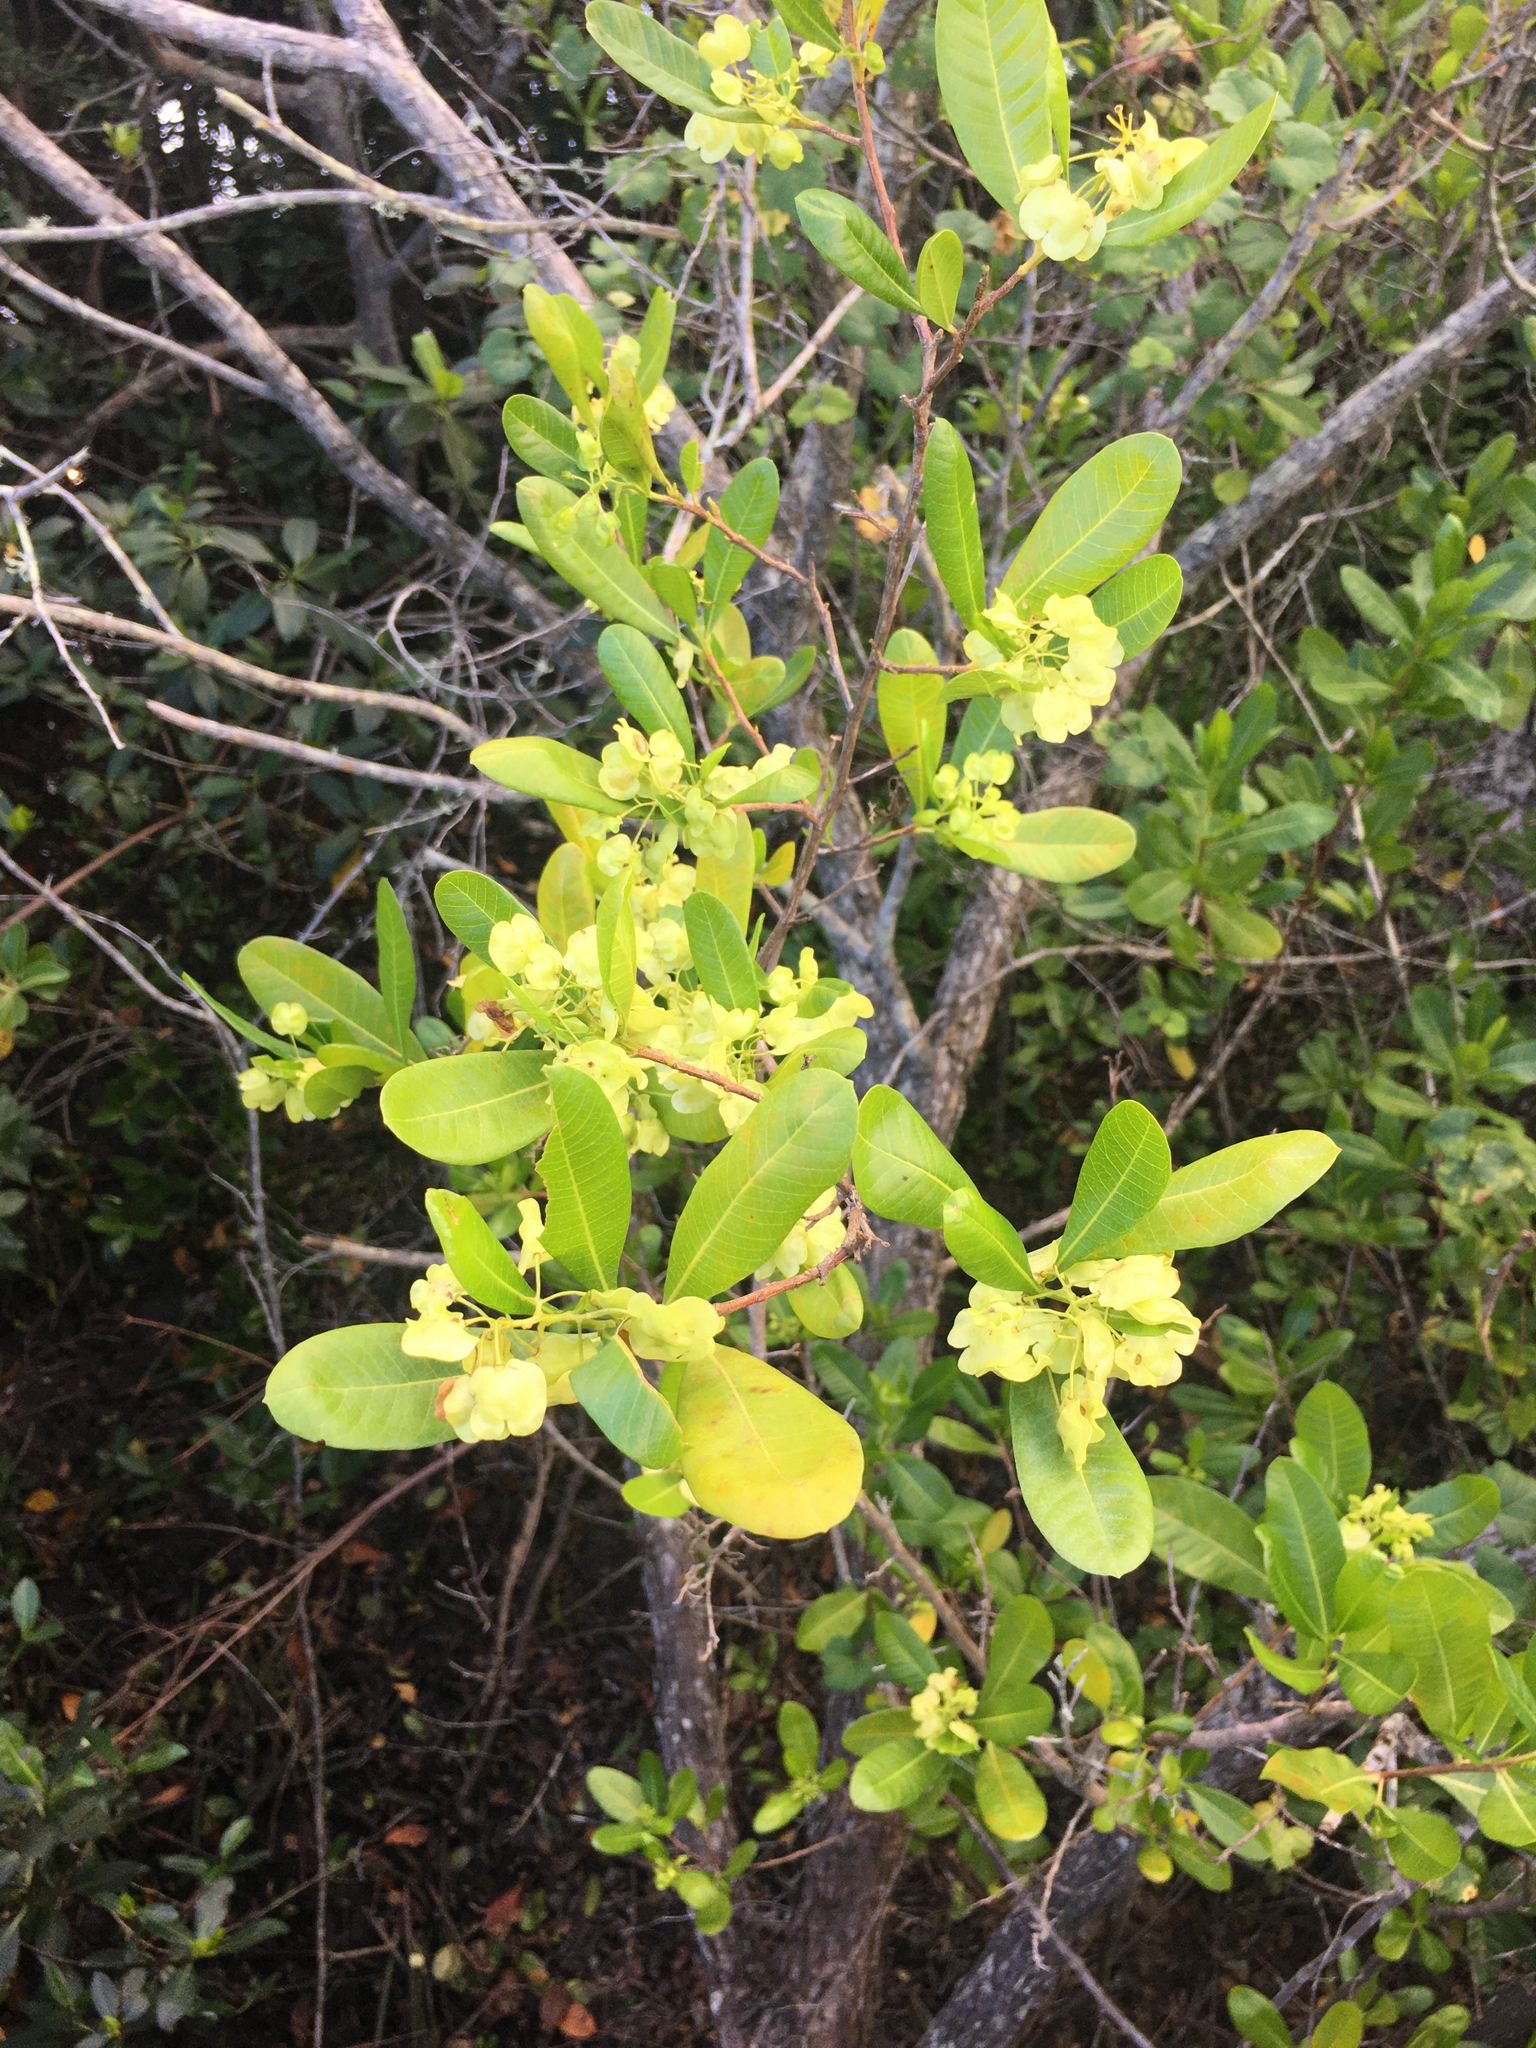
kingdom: Plantae
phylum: Tracheophyta
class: Magnoliopsida
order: Sapindales
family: Sapindaceae
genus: Dodonaea
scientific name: Dodonaea viscosa
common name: Hopbush
